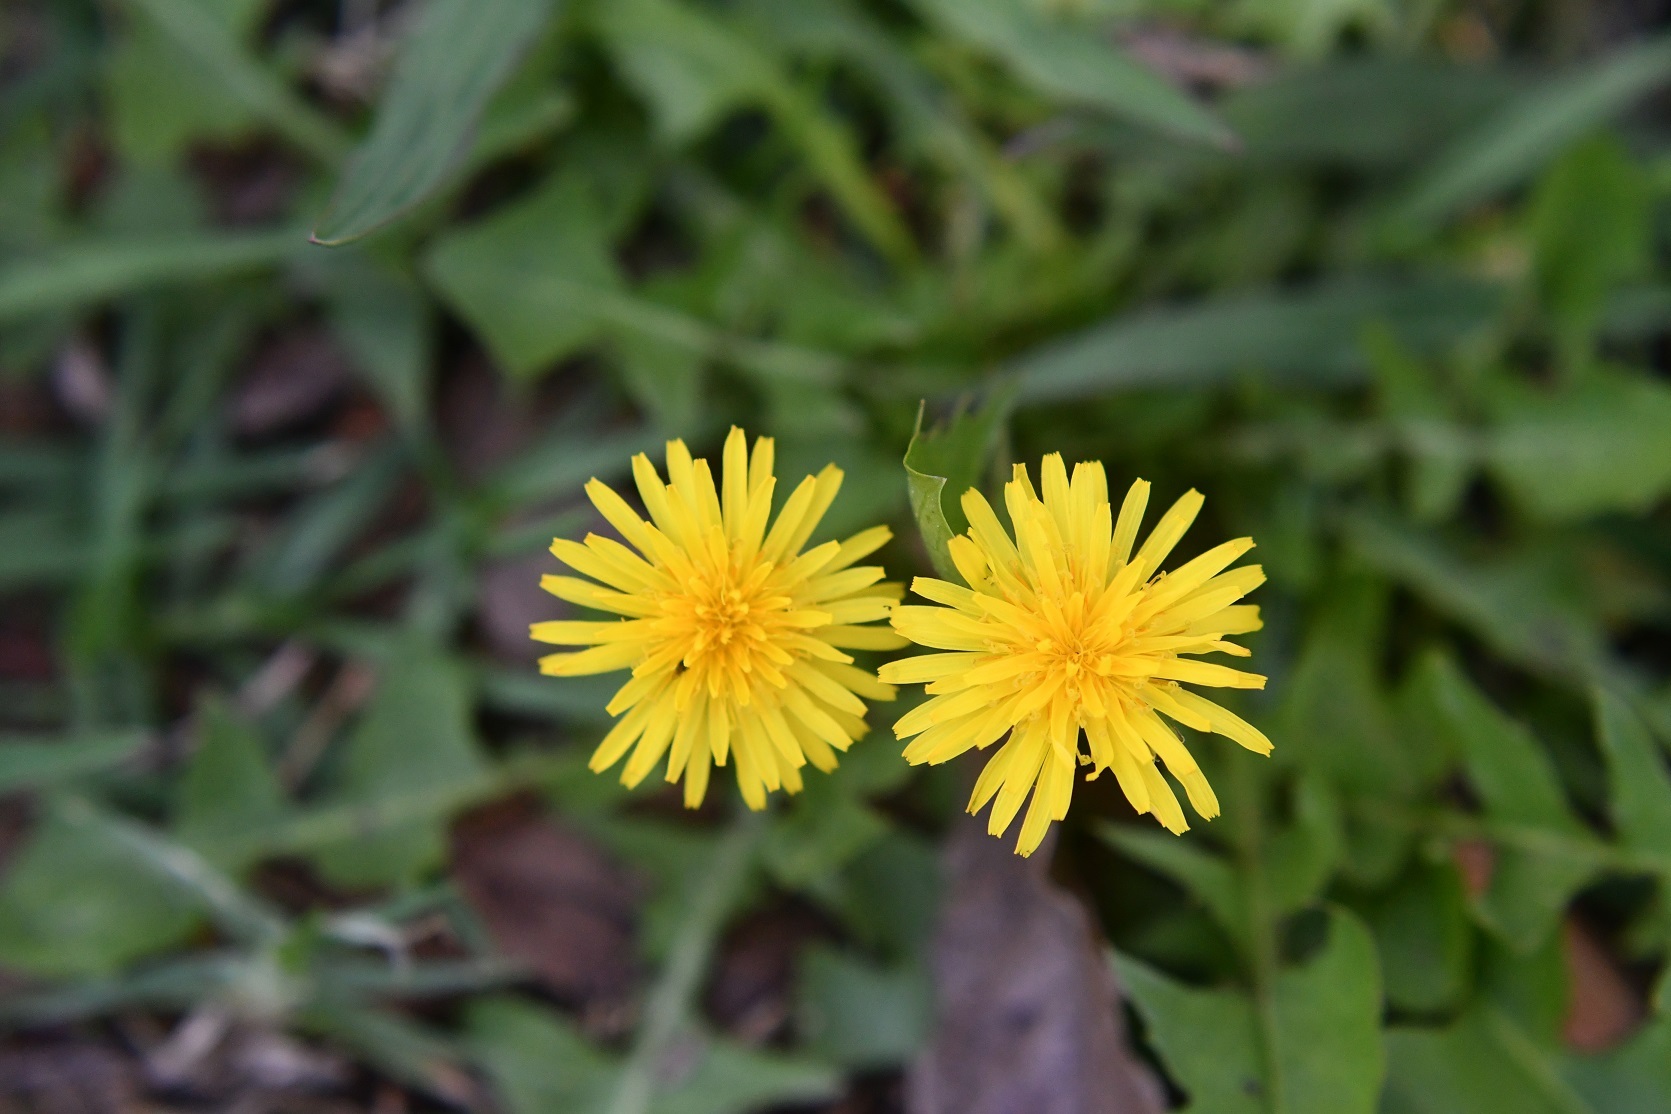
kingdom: Plantae
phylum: Tracheophyta
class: Magnoliopsida
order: Asterales
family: Asteraceae
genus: Taraxacum
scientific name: Taraxacum officinale
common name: Common dandelion
